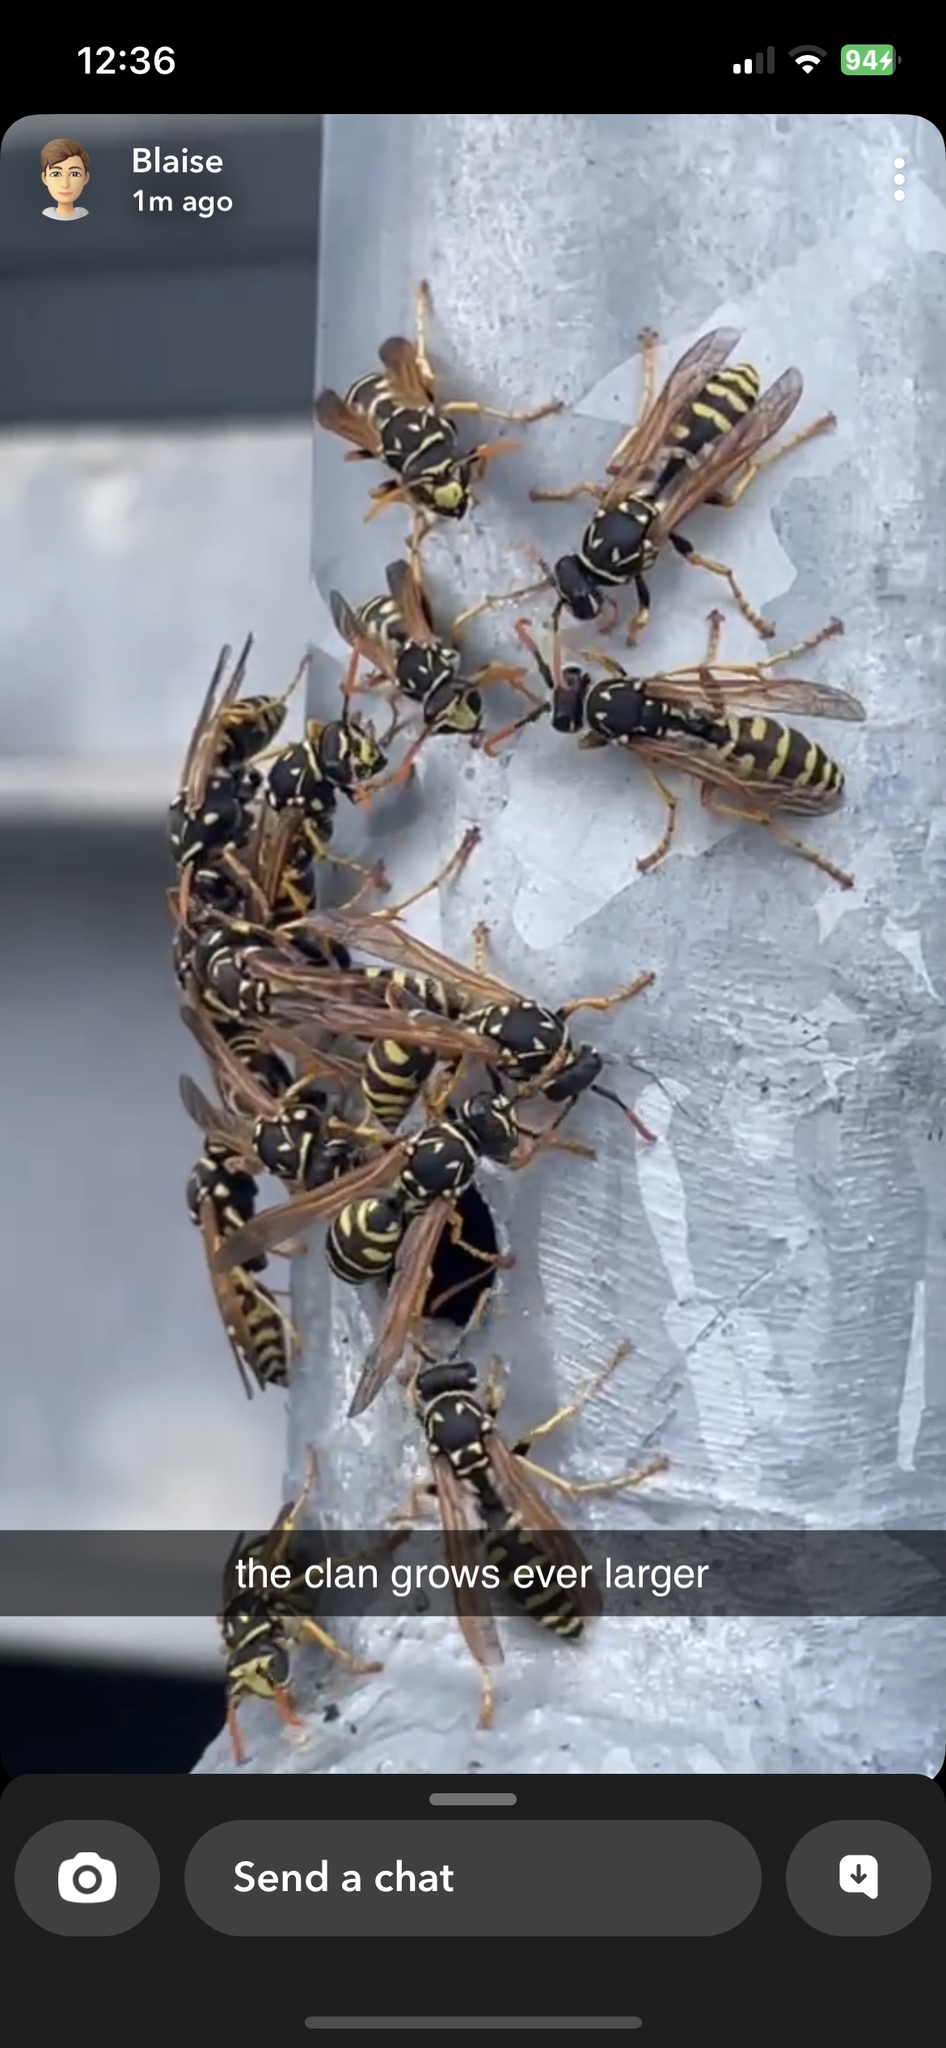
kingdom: Animalia
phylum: Arthropoda
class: Insecta
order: Hymenoptera
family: Eumenidae
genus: Polistes
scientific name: Polistes dominula
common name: Paper wasp
